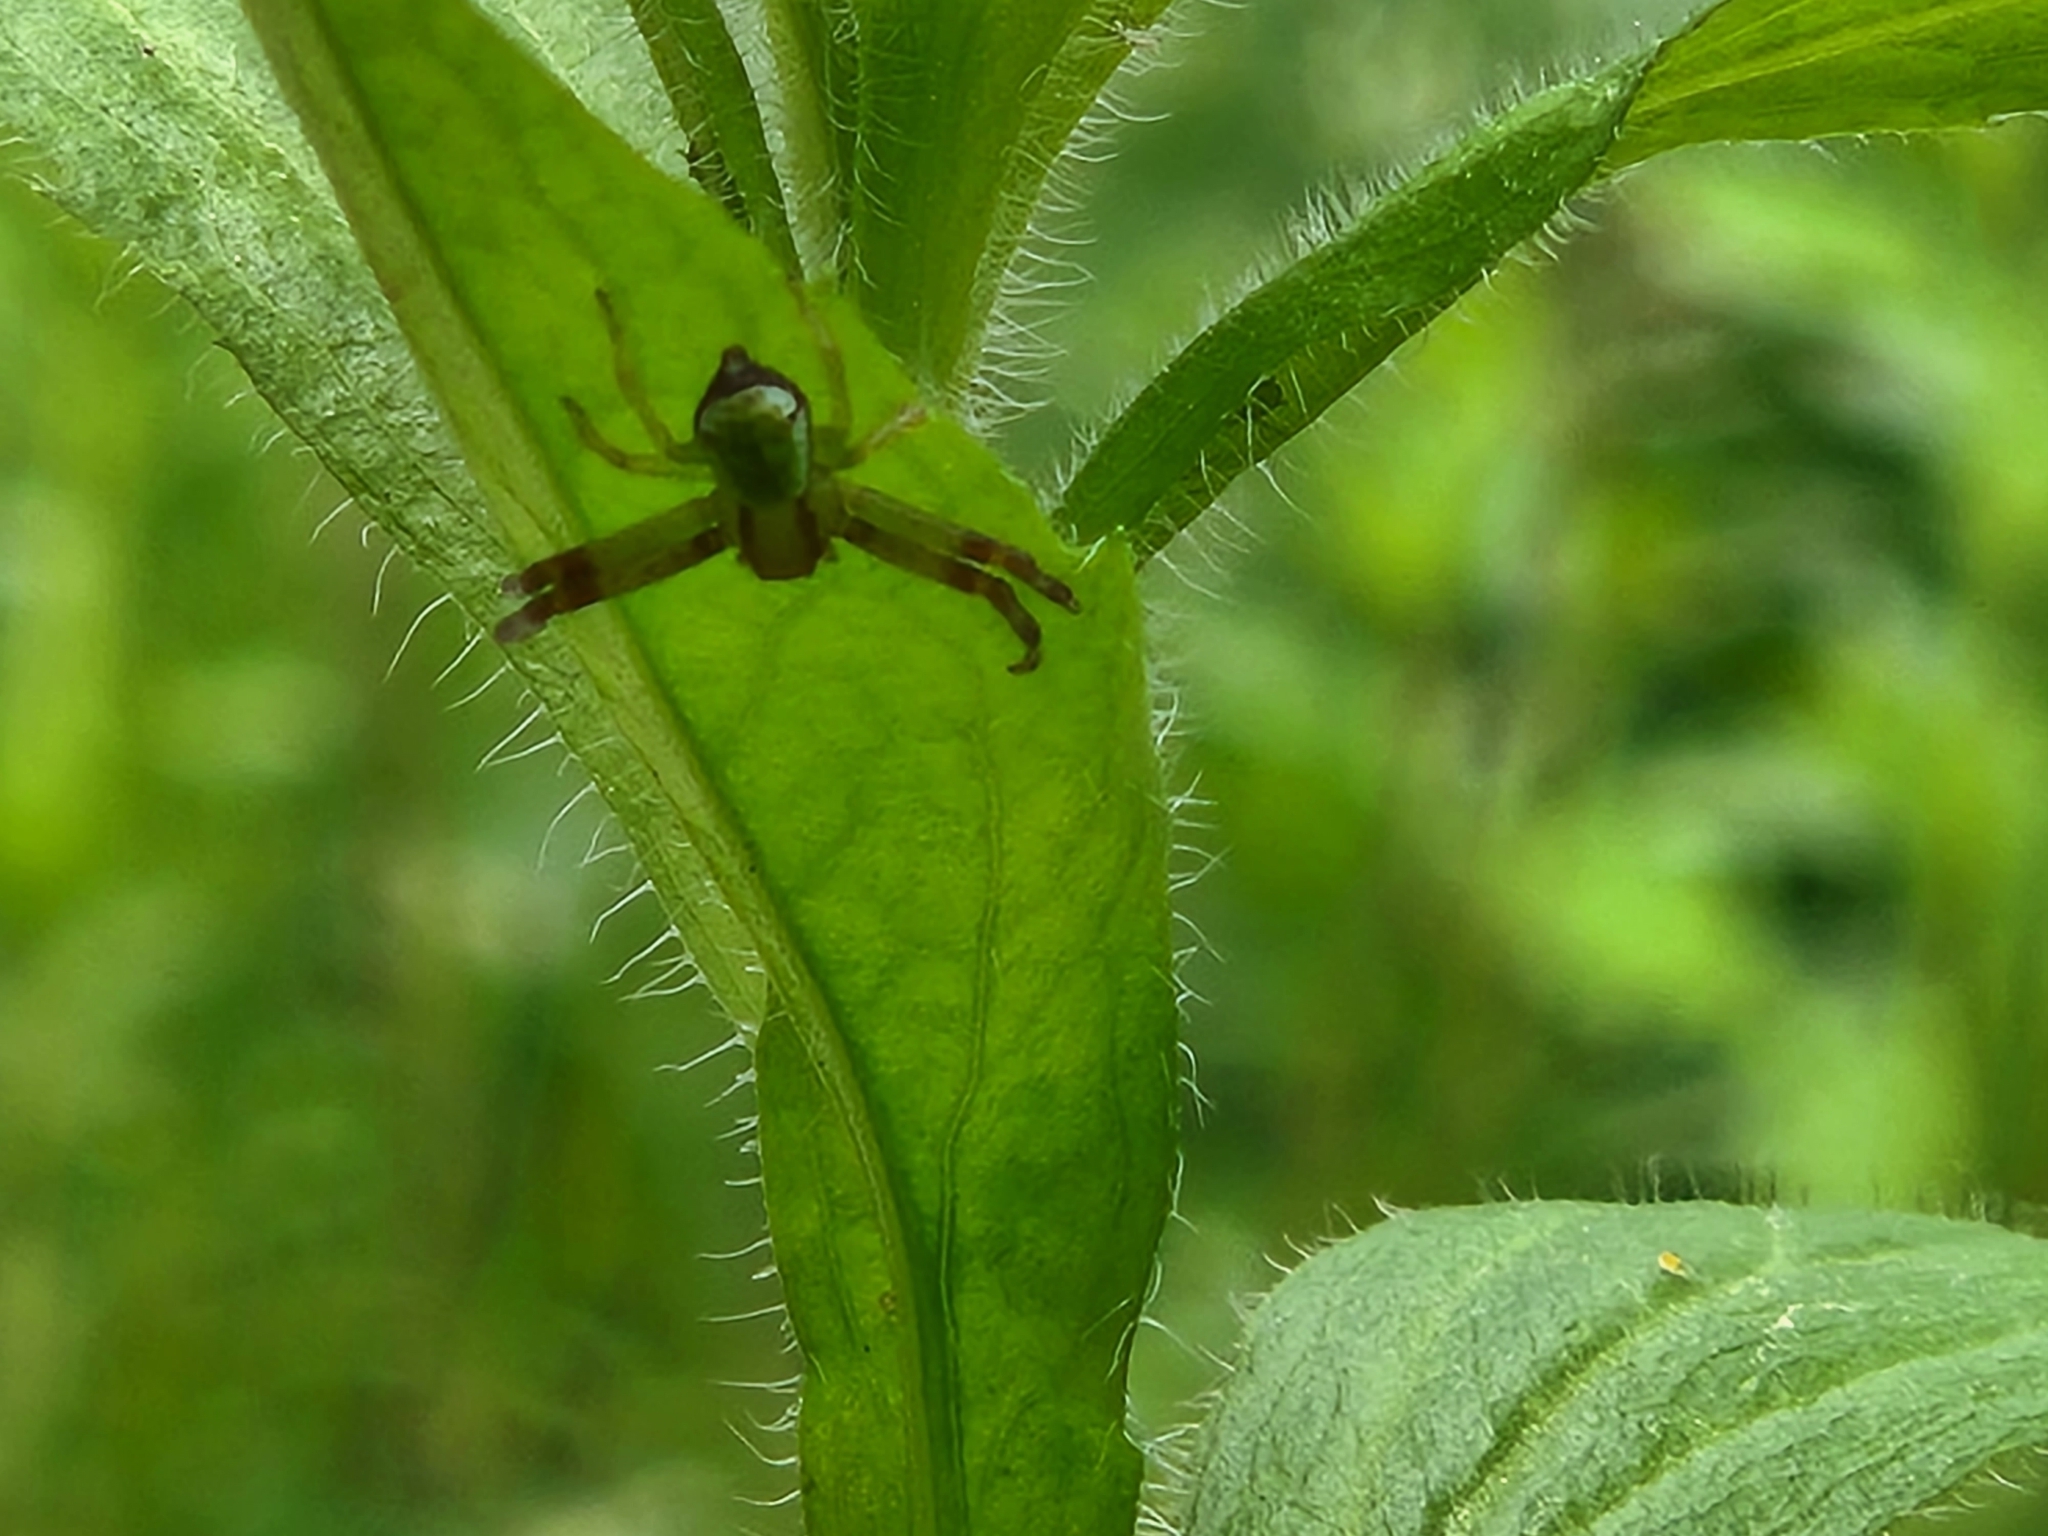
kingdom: Animalia
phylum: Arthropoda
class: Arachnida
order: Araneae
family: Thomisidae
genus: Ebrechtella
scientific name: Ebrechtella tricuspidata
